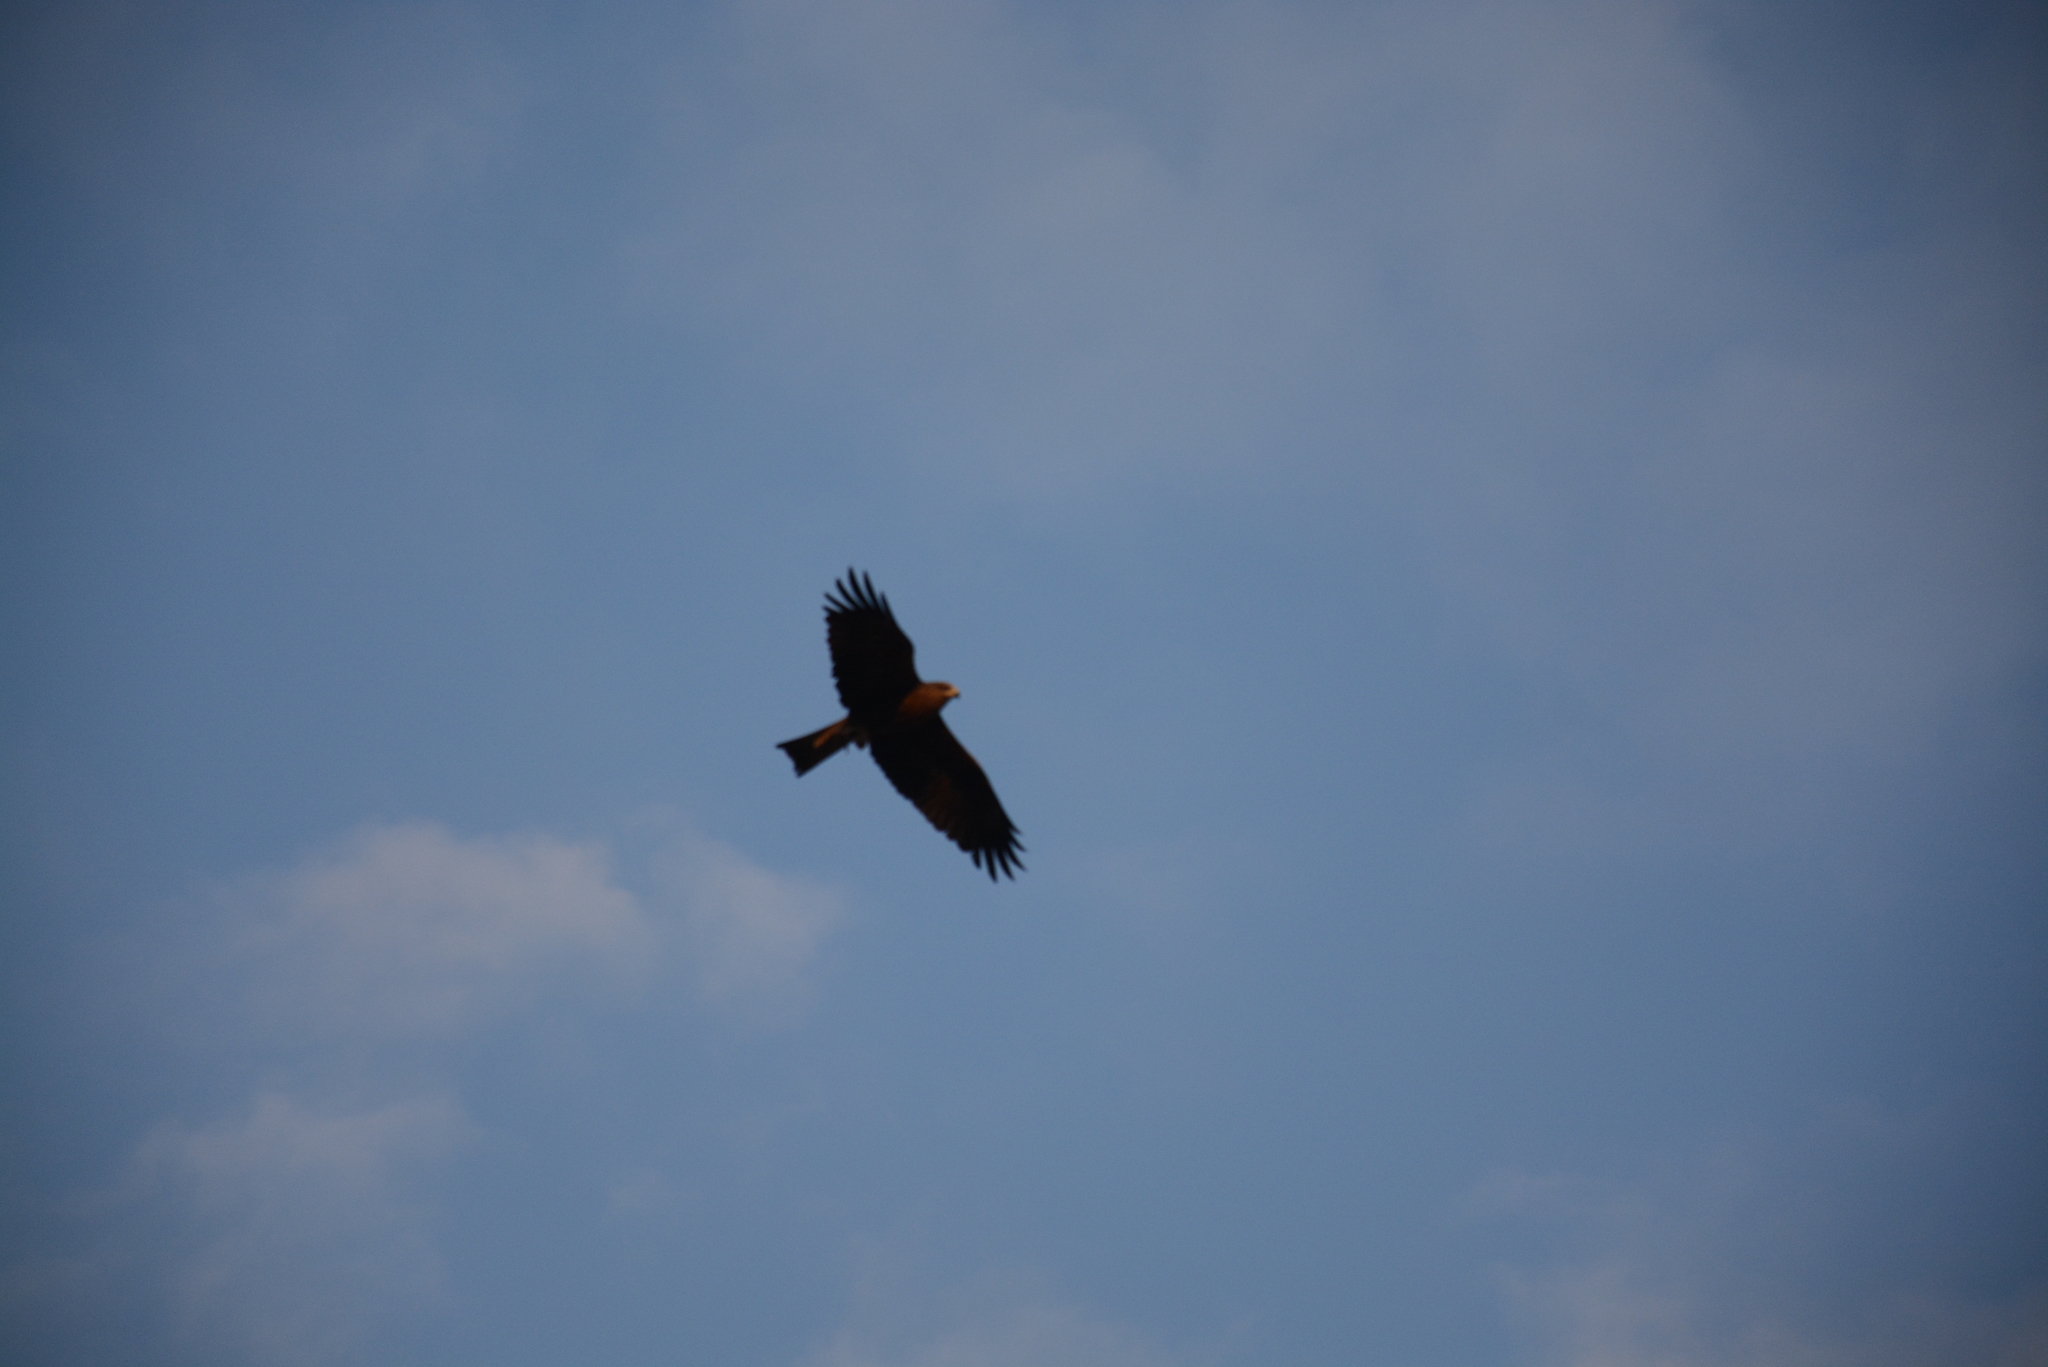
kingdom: Animalia
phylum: Chordata
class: Aves
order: Accipitriformes
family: Accipitridae
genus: Milvus
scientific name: Milvus migrans
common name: Black kite
